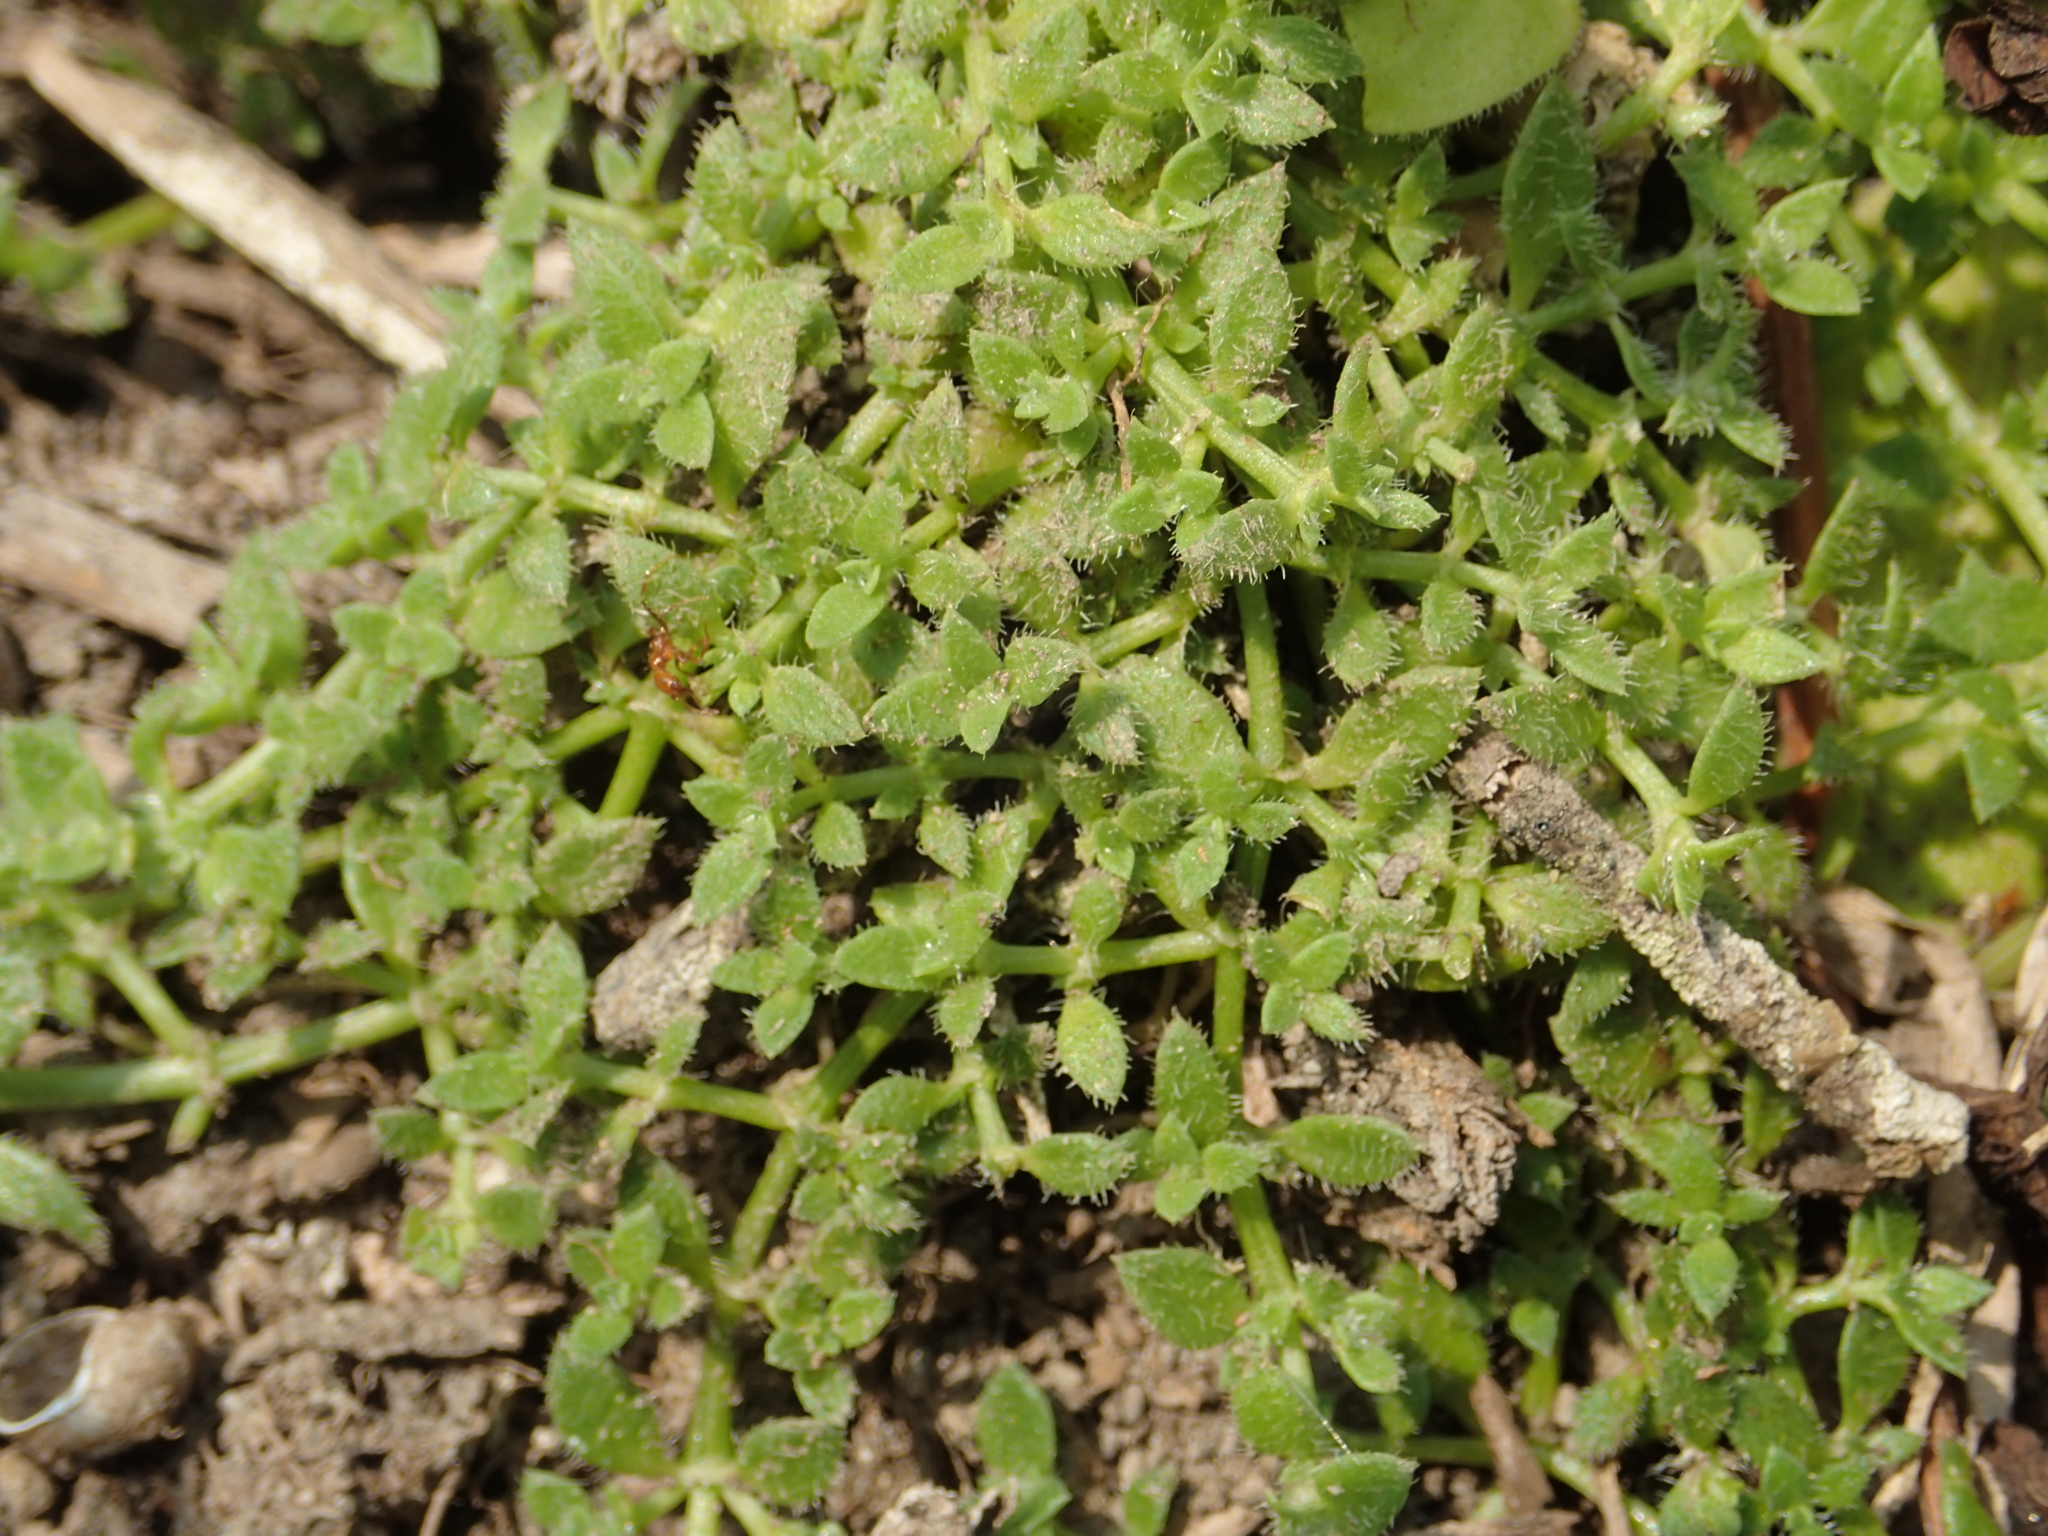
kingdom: Plantae
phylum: Tracheophyta
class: Magnoliopsida
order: Gentianales
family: Rubiaceae
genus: Dentella
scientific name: Dentella repens
